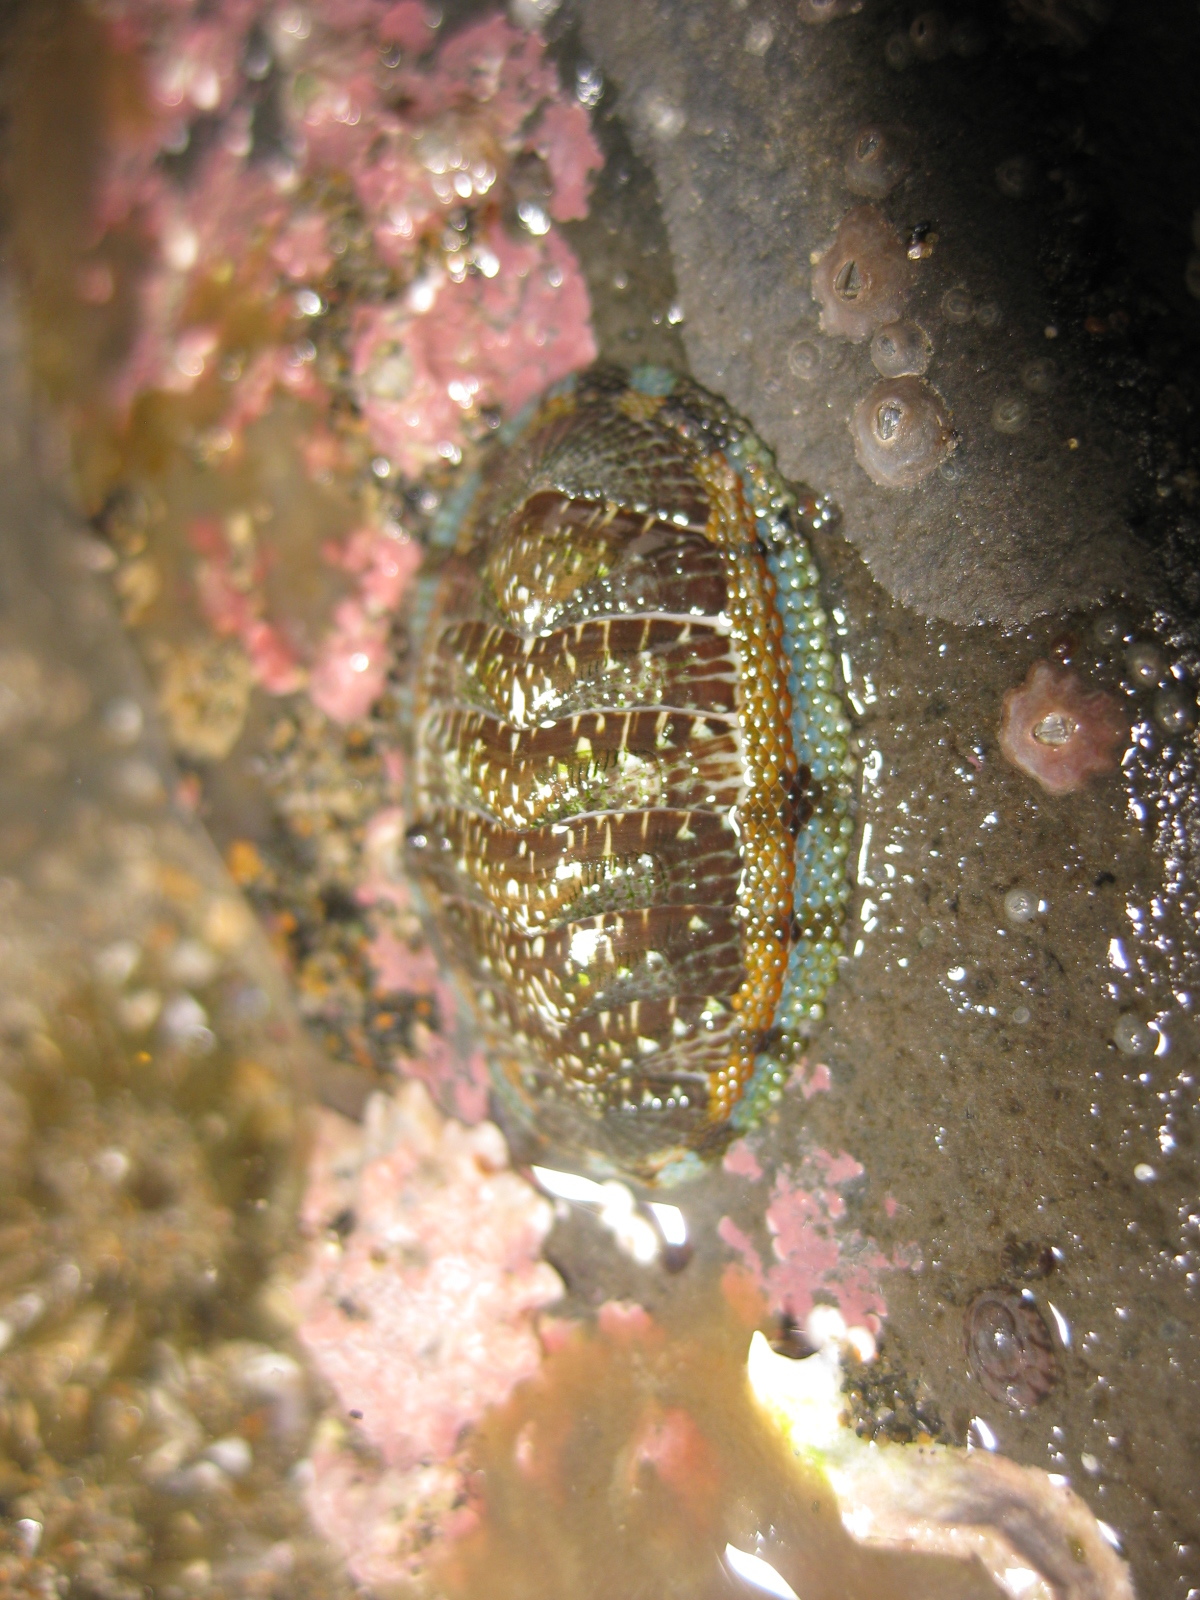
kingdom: Animalia
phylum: Mollusca
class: Polyplacophora
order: Chitonida
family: Chitonidae
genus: Sypharochiton
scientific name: Sypharochiton sinclairi
